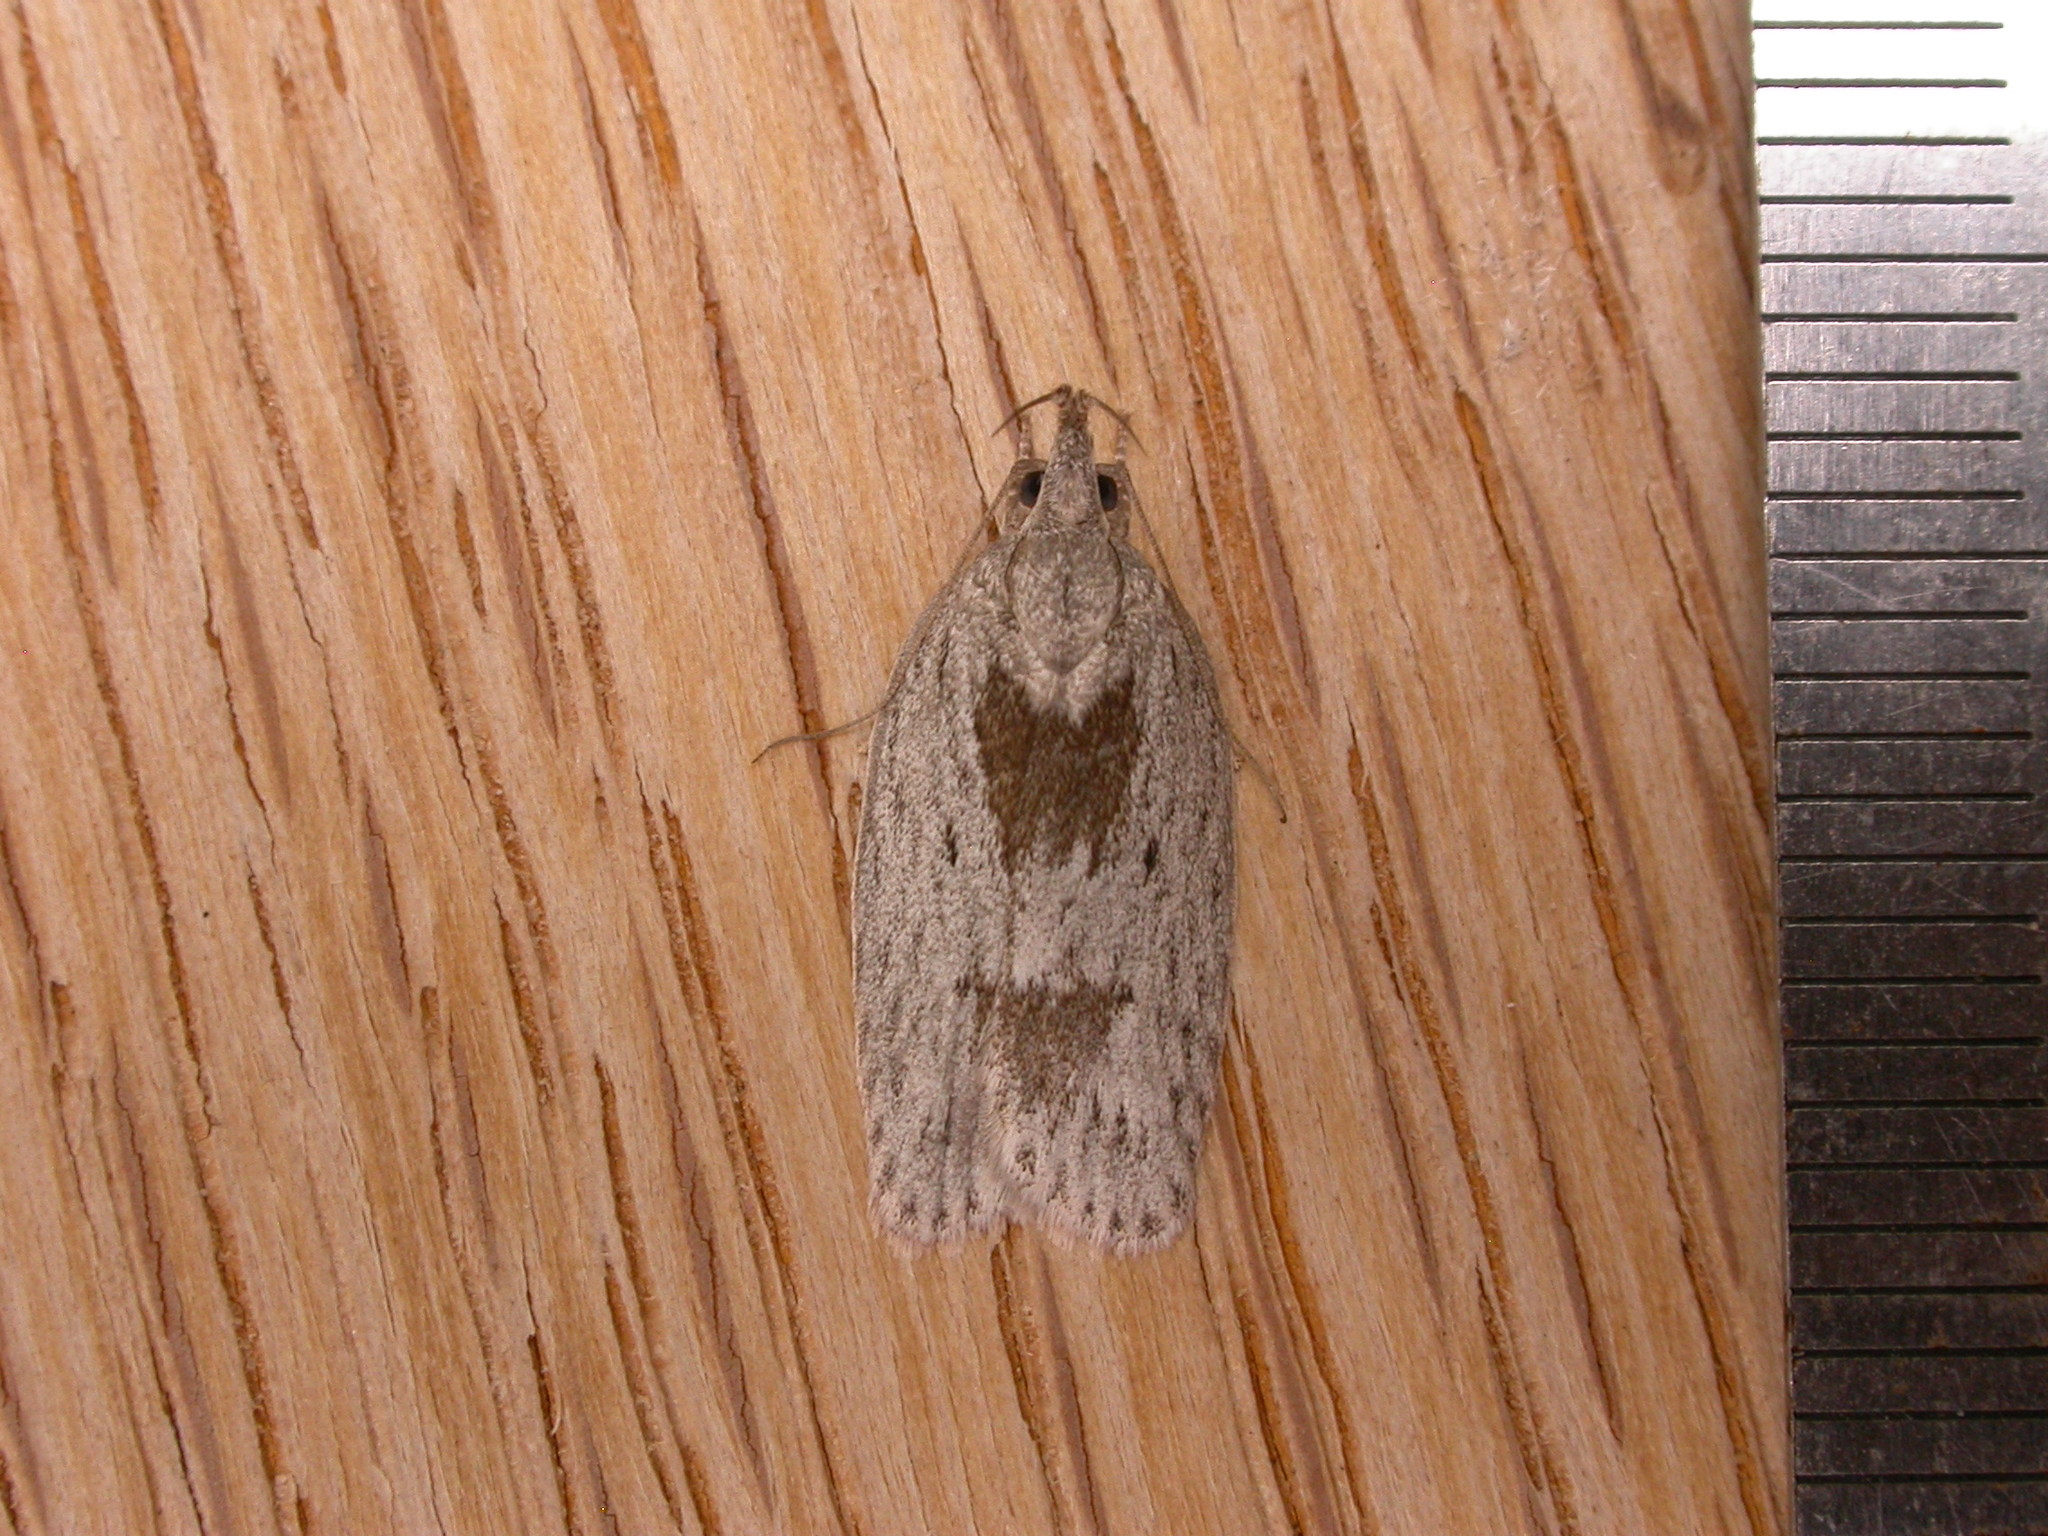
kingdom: Animalia
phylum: Arthropoda
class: Insecta
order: Lepidoptera
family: Depressariidae
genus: Pedois
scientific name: Pedois lewinella
